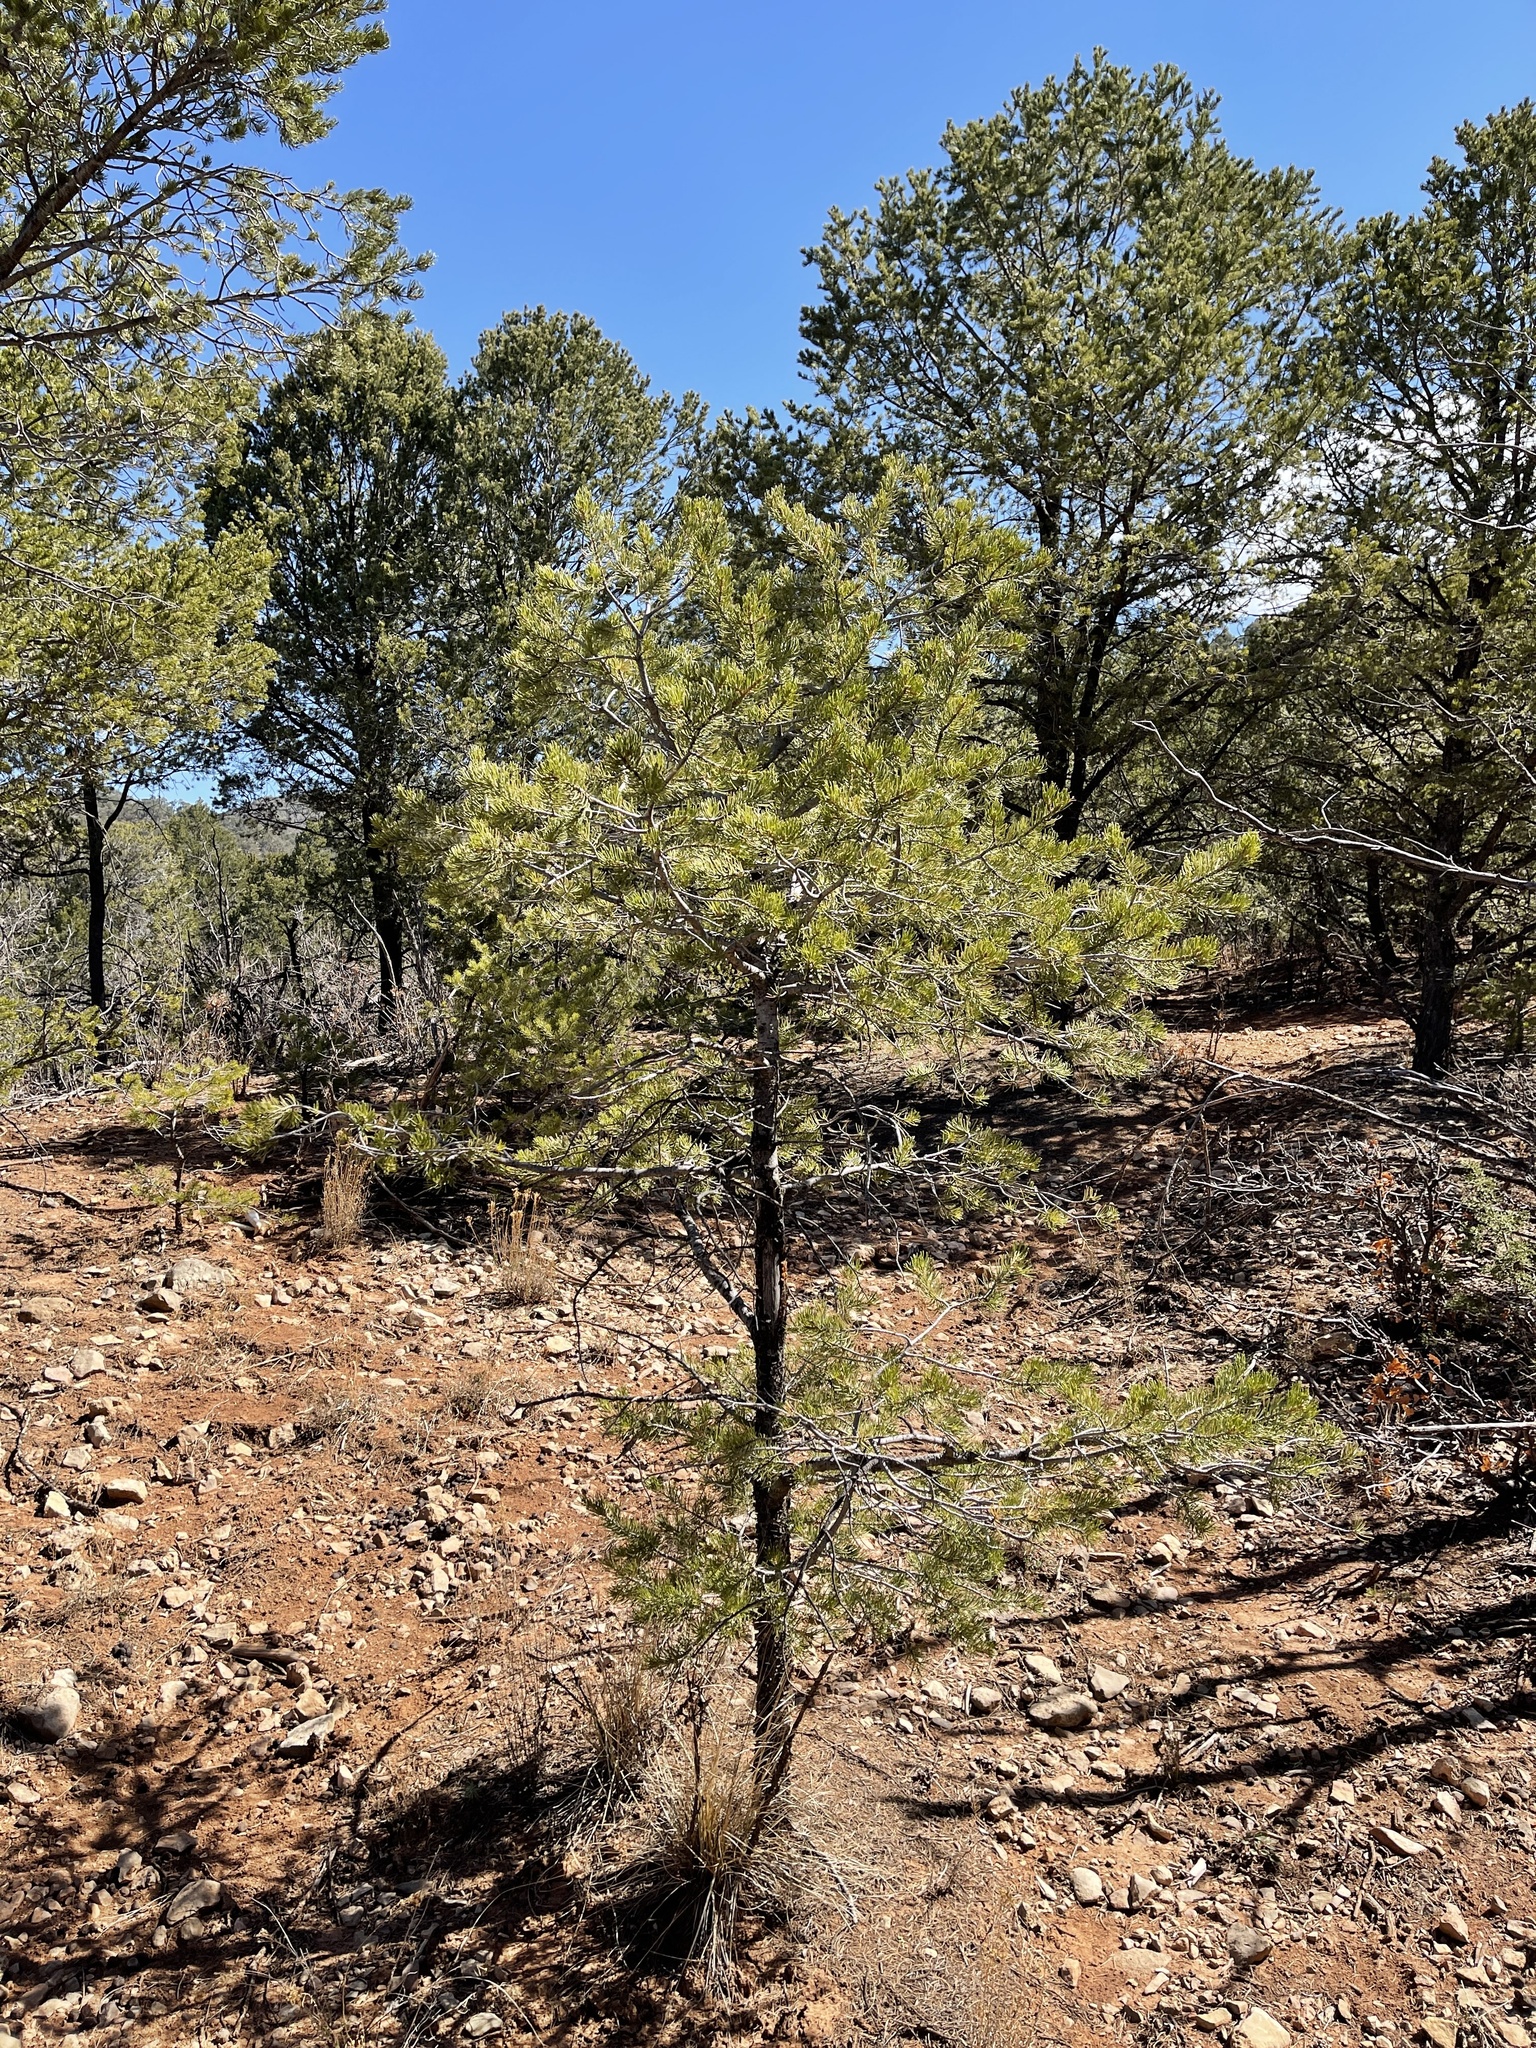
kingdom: Plantae
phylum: Tracheophyta
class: Pinopsida
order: Pinales
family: Pinaceae
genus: Pinus
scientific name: Pinus edulis
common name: Colorado pinyon
